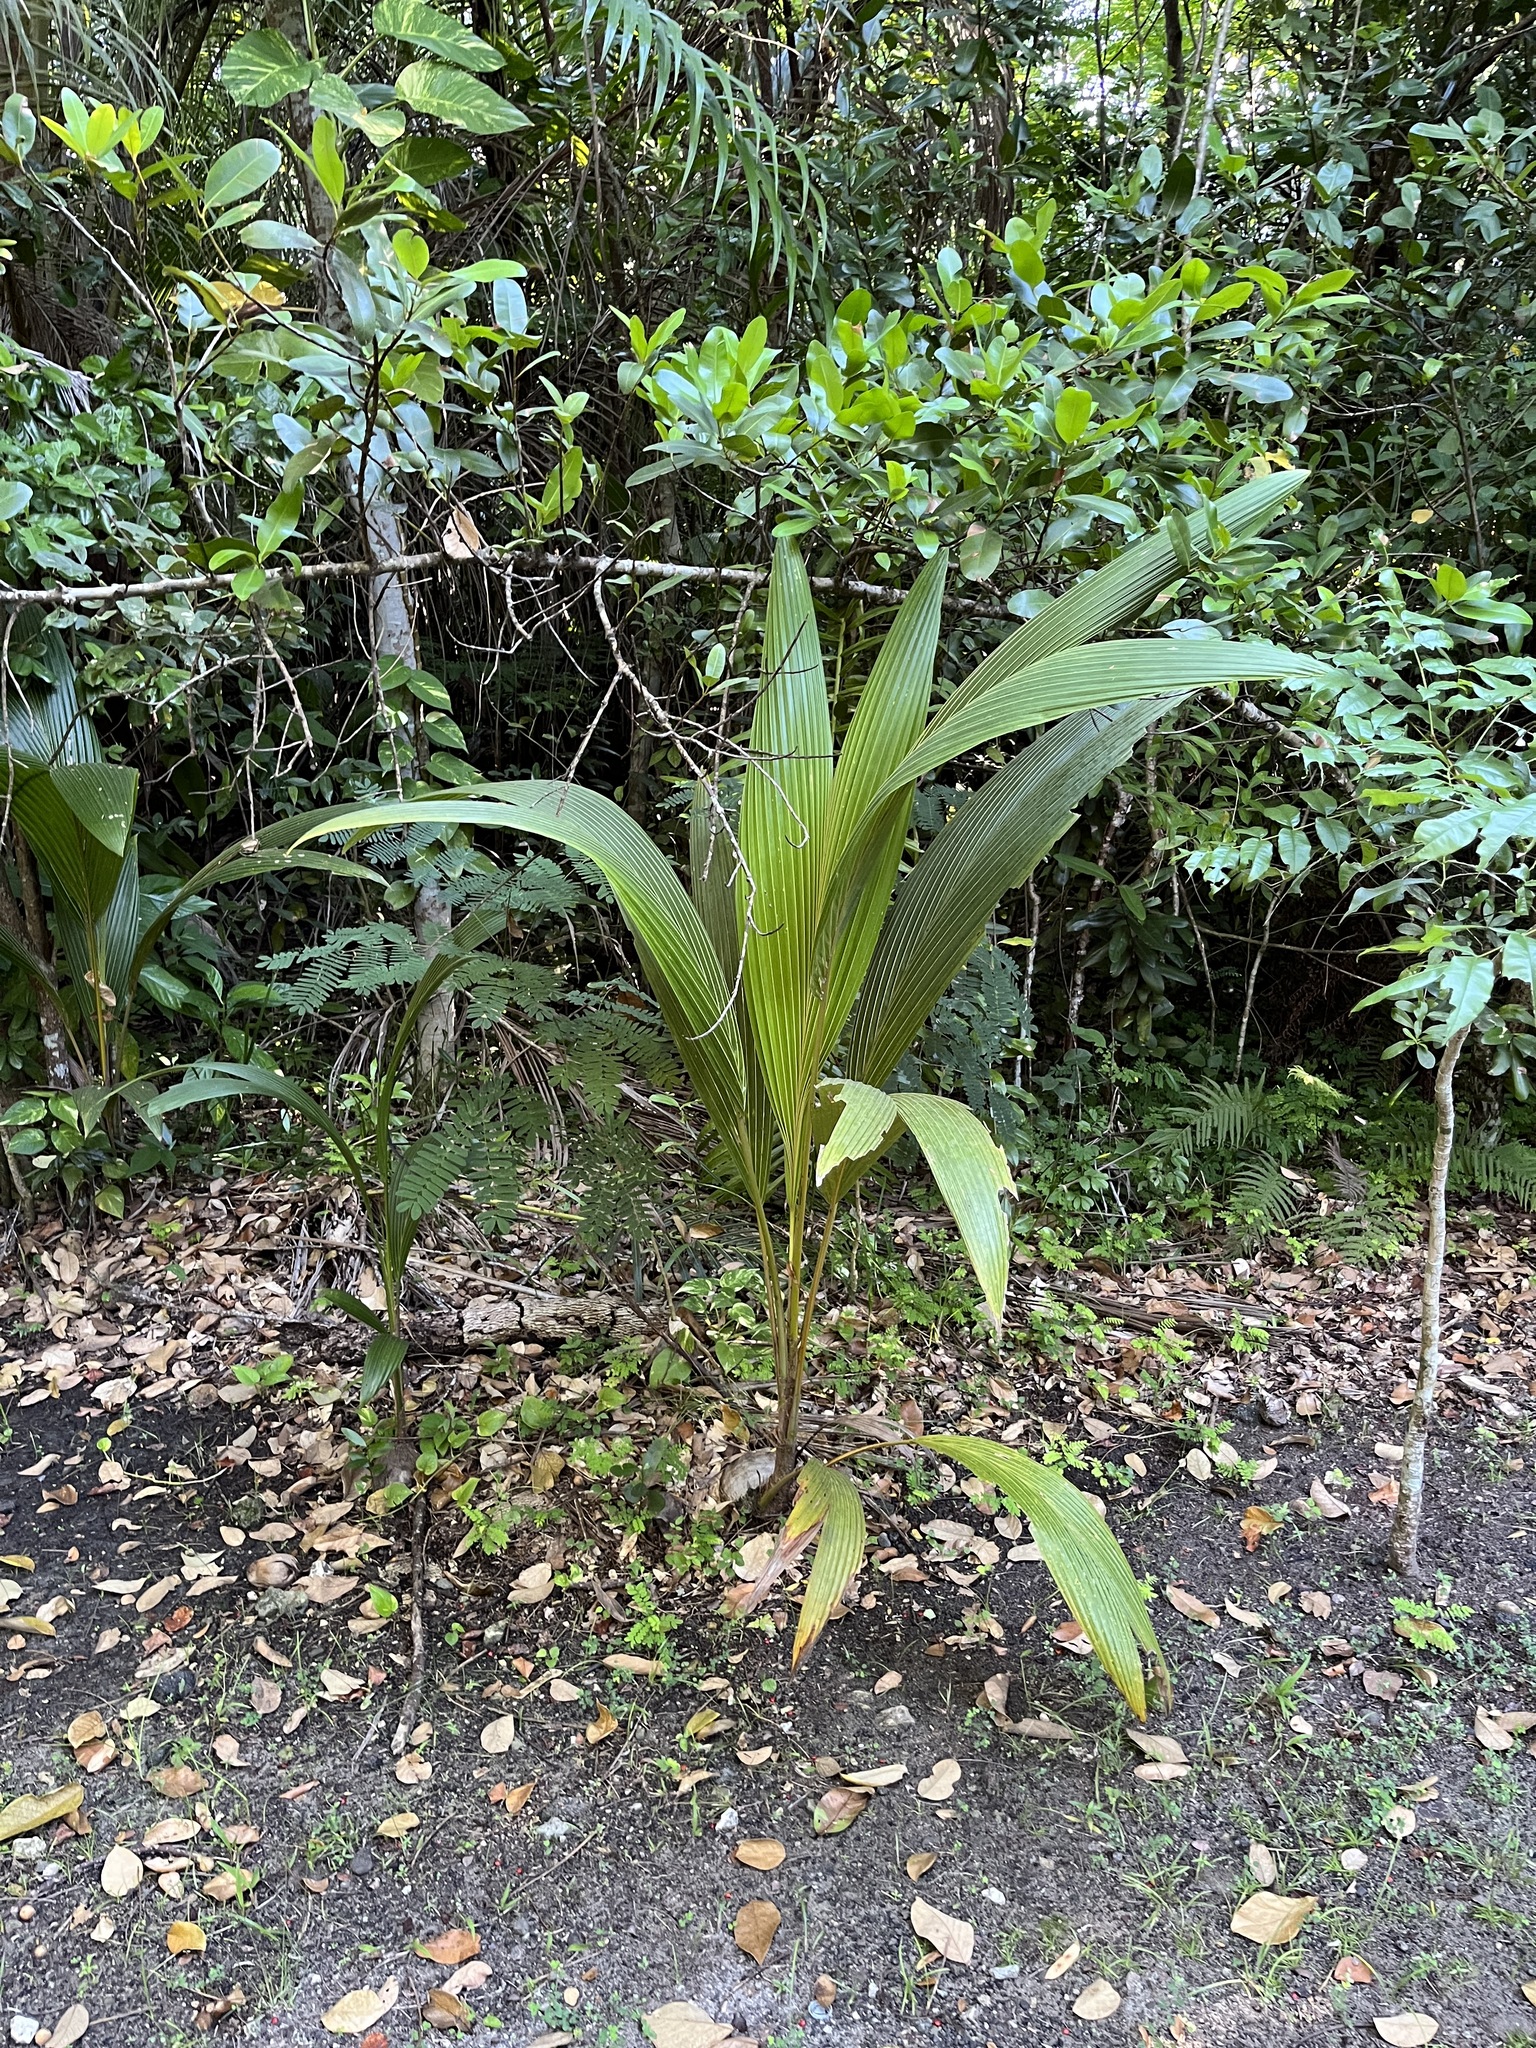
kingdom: Plantae
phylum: Tracheophyta
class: Liliopsida
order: Arecales
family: Arecaceae
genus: Cocos
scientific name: Cocos nucifera
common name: Coconut palm
